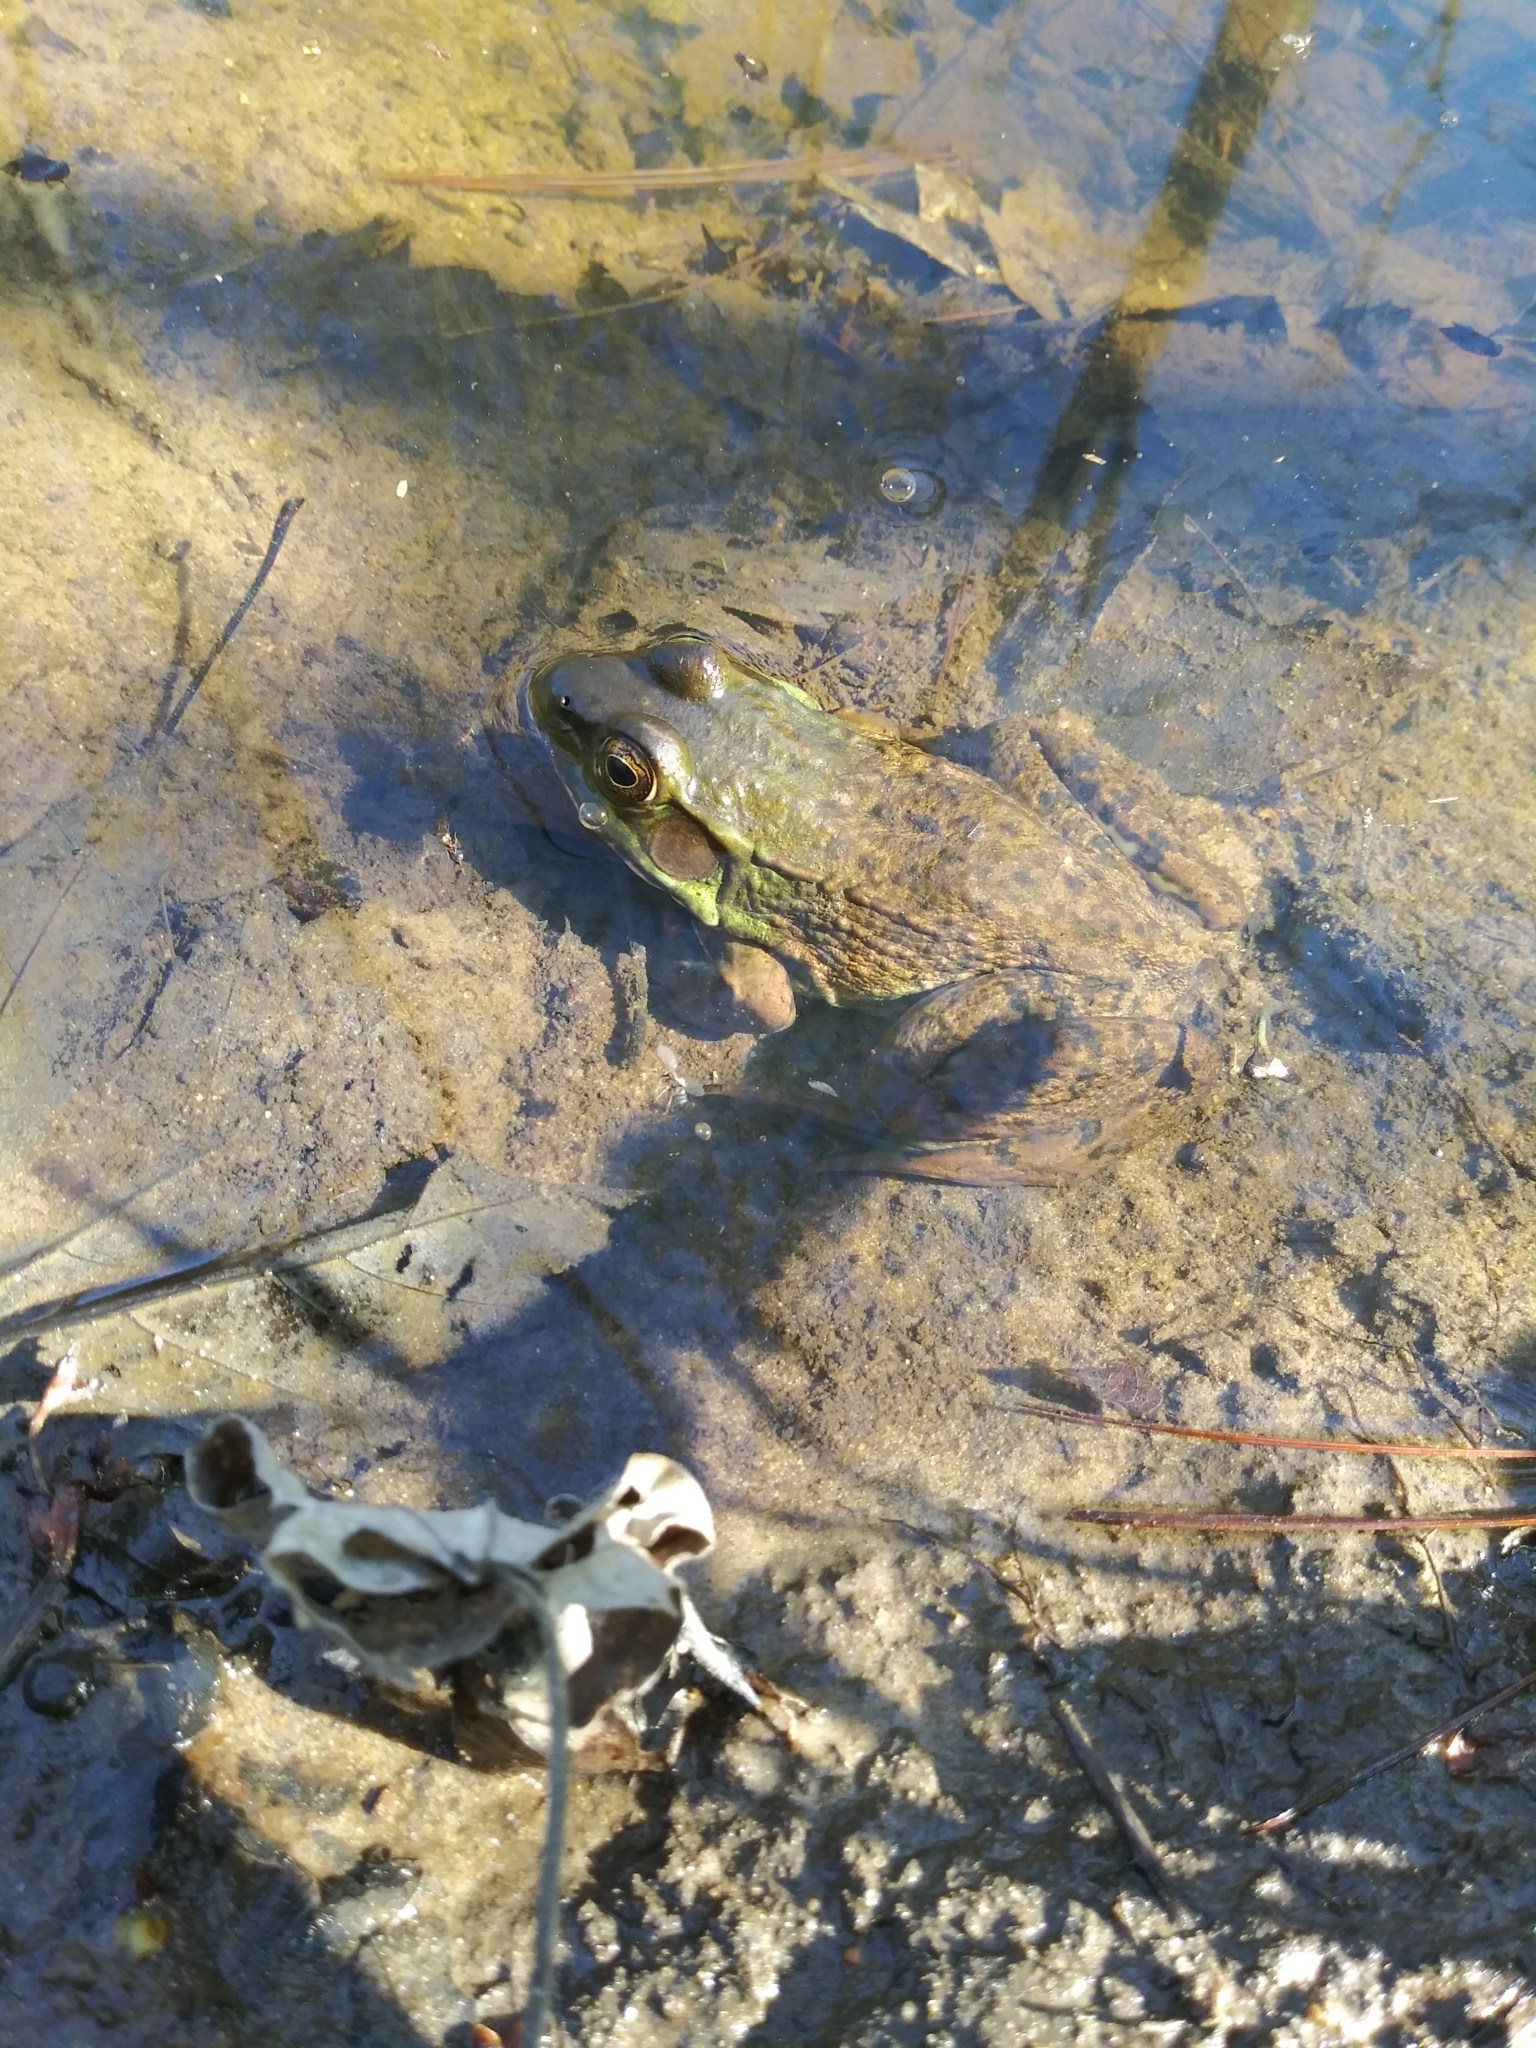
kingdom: Animalia
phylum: Chordata
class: Amphibia
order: Anura
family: Ranidae
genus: Lithobates
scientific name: Lithobates clamitans
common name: Green frog
